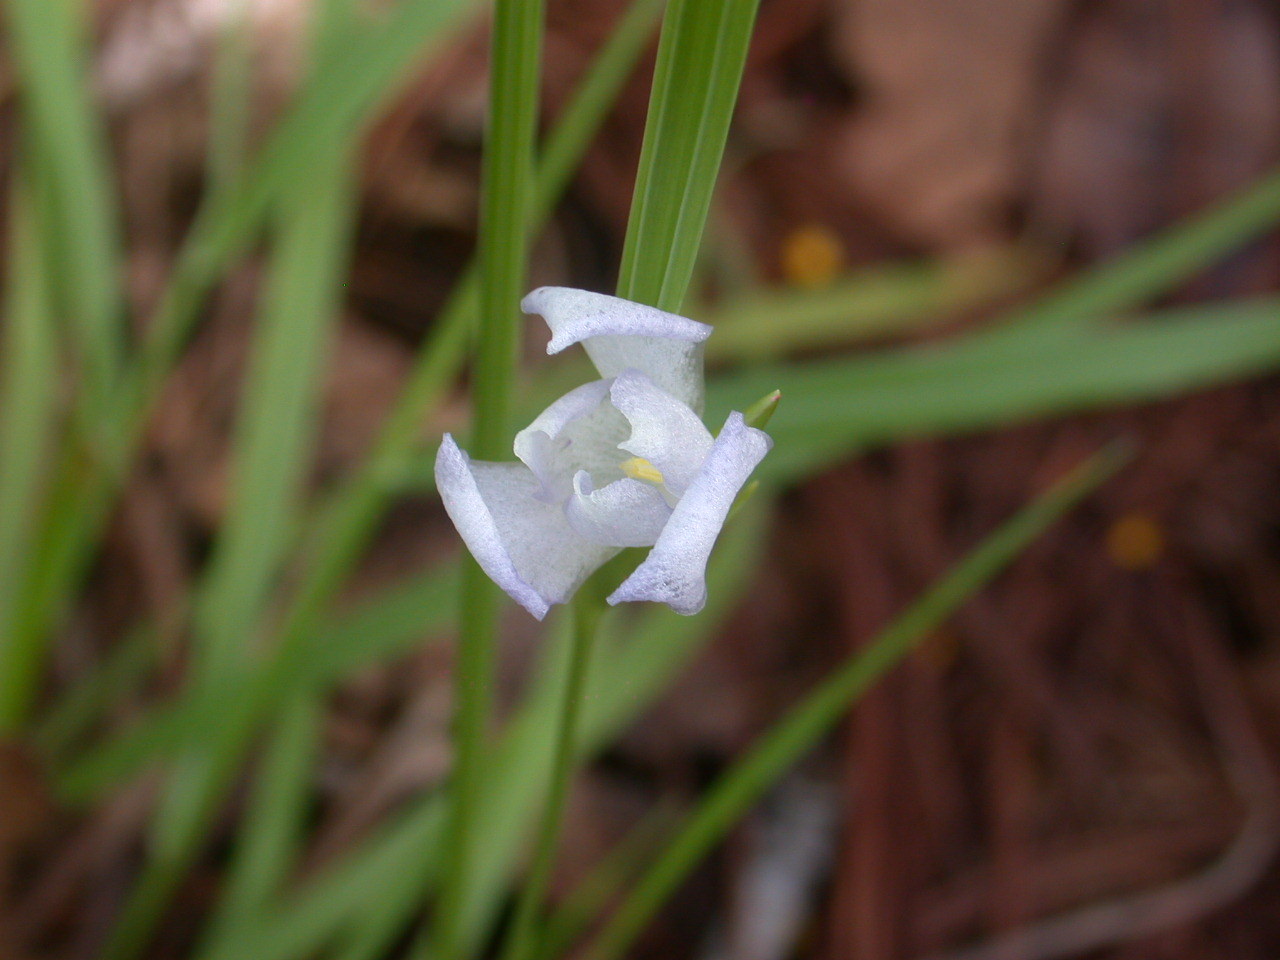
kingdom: Plantae
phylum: Tracheophyta
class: Liliopsida
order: Asparagales
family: Iridaceae
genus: Cipura
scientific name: Cipura campanulata
